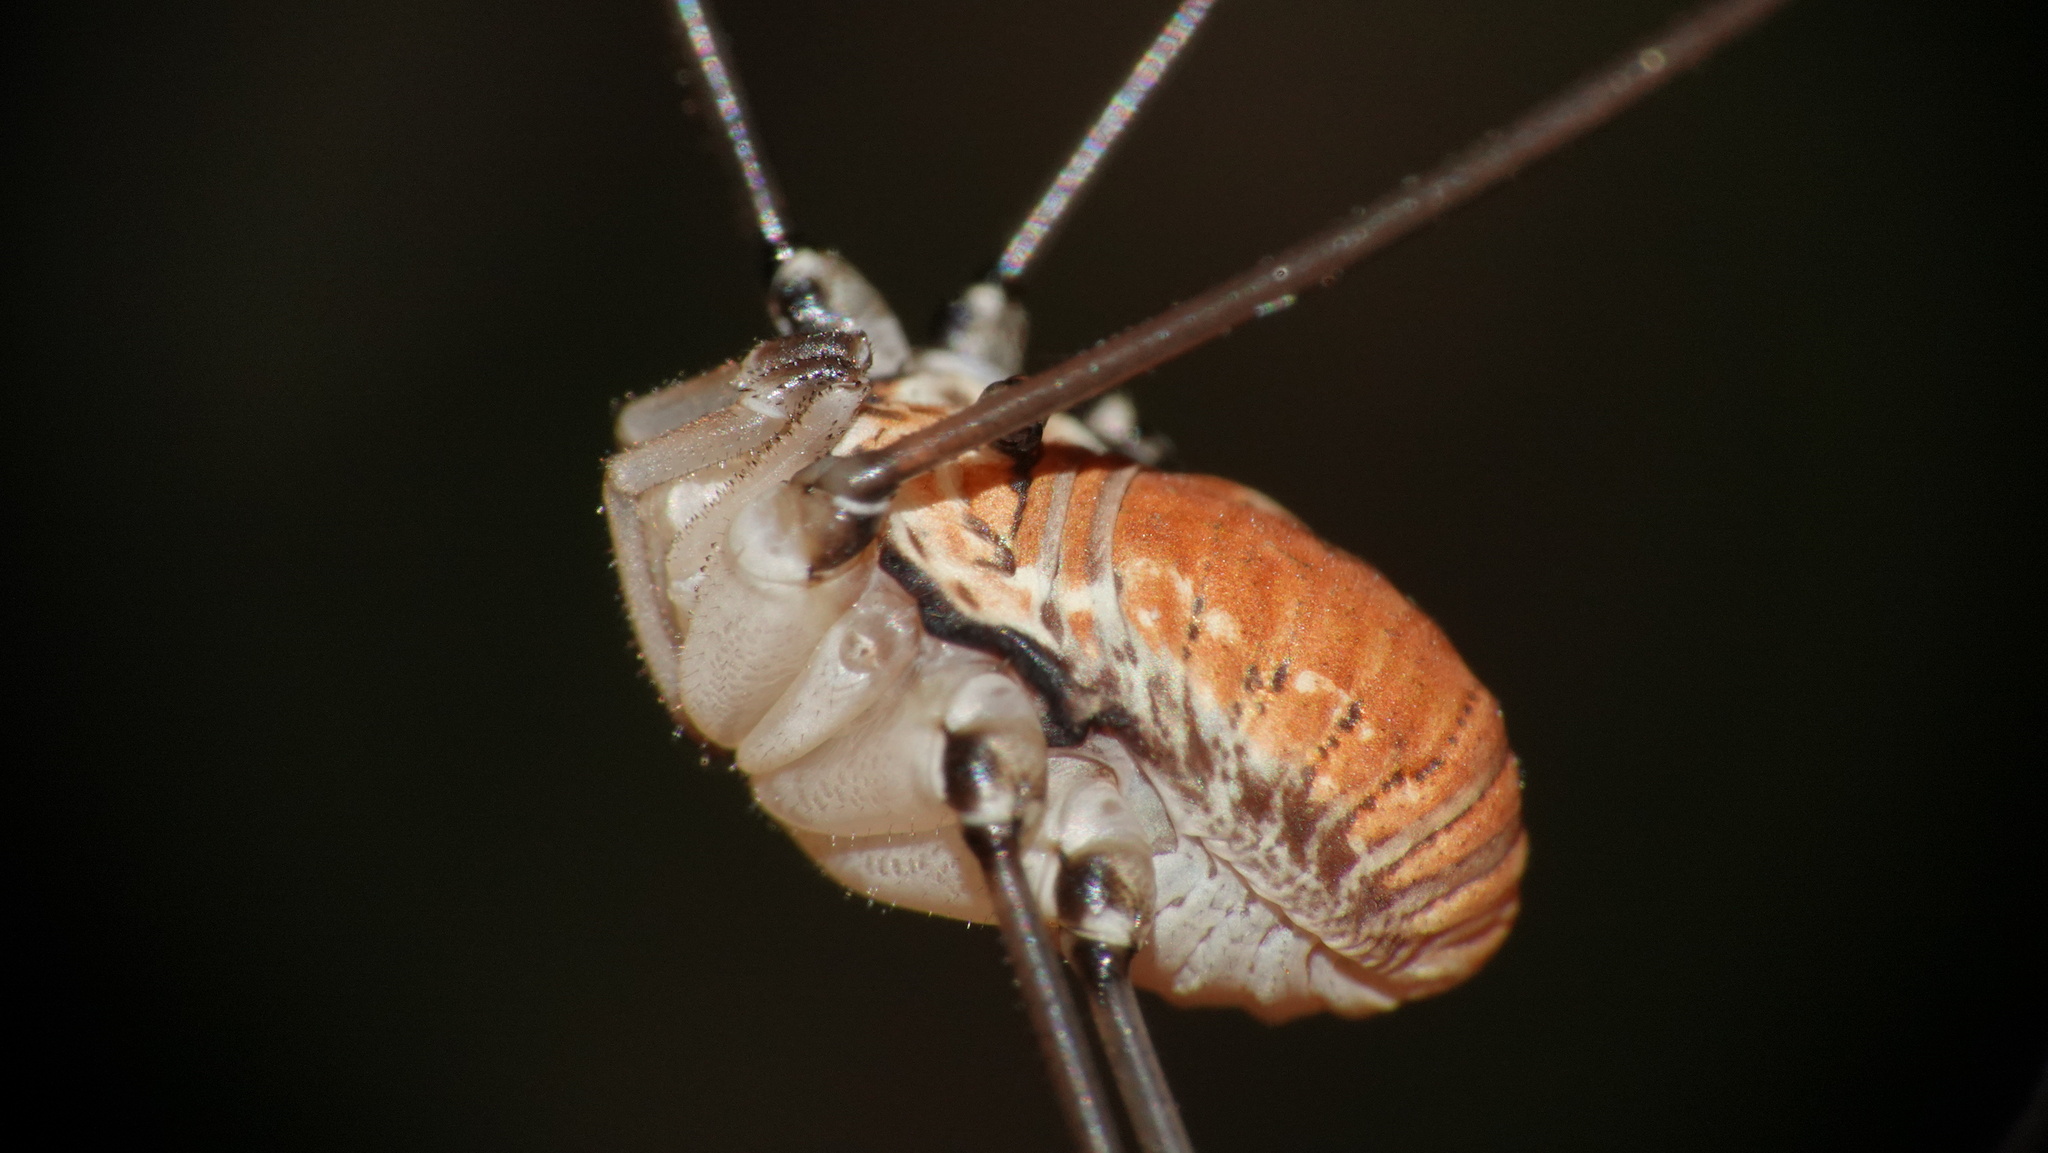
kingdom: Animalia
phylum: Arthropoda
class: Arachnida
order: Opiliones
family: Sclerosomatidae
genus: Leiobunum
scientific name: Leiobunum limbatum
